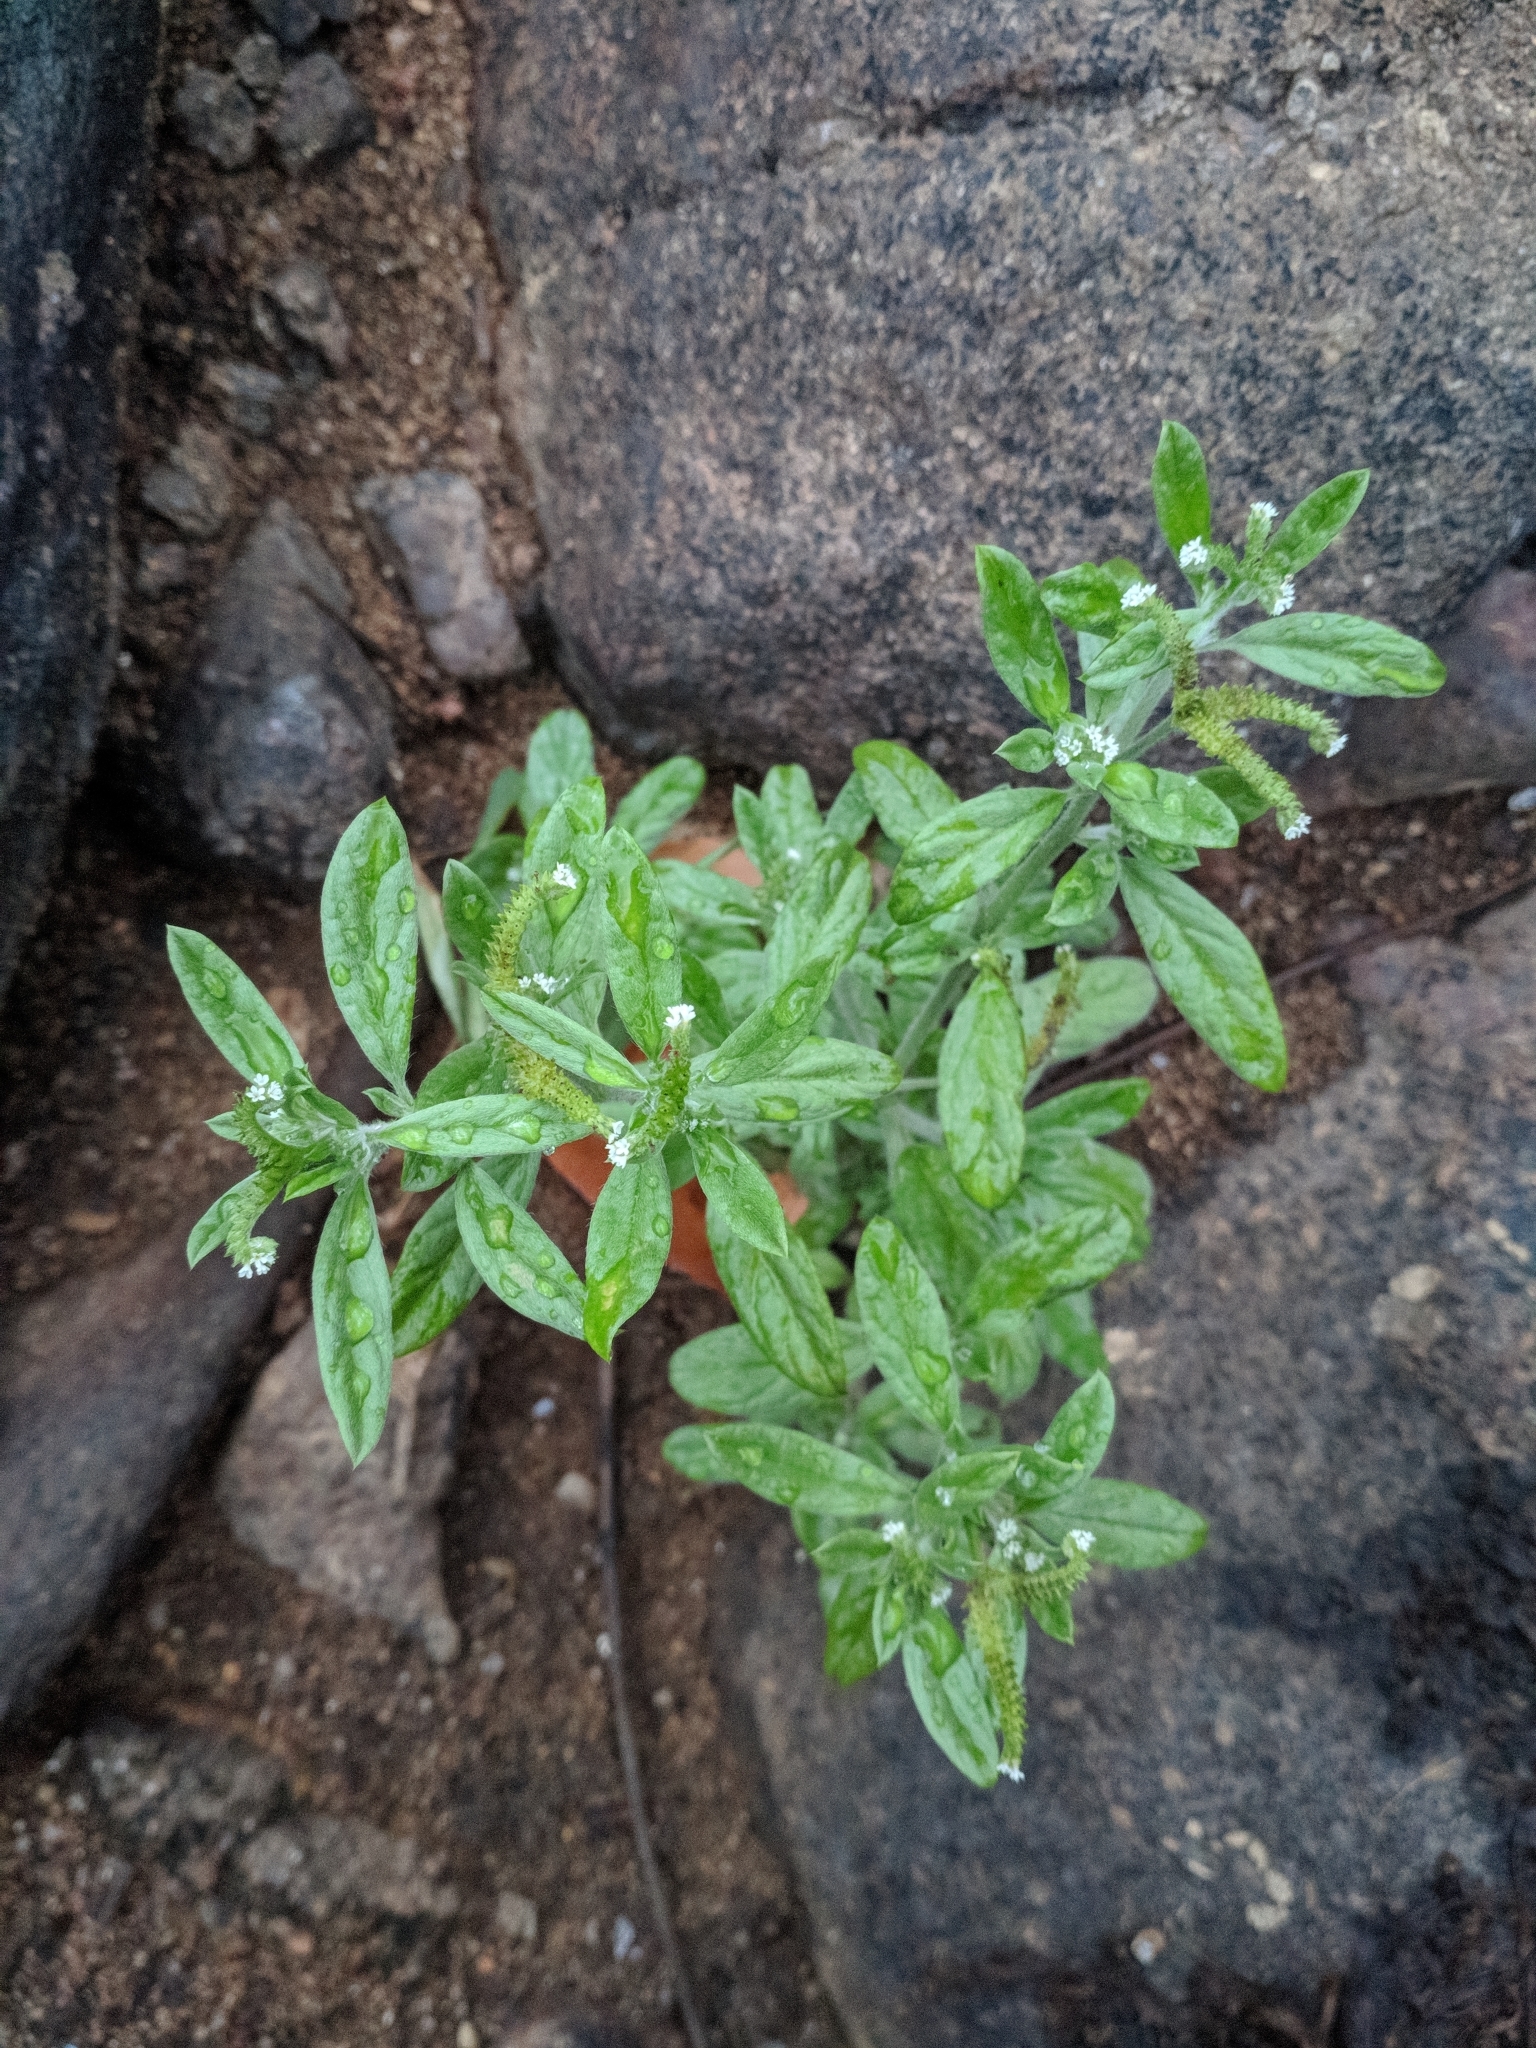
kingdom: Plantae
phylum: Tracheophyta
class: Magnoliopsida
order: Boraginales
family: Heliotropiaceae
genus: Euploca
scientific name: Euploca procumbens
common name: Fourspike heliotrope
